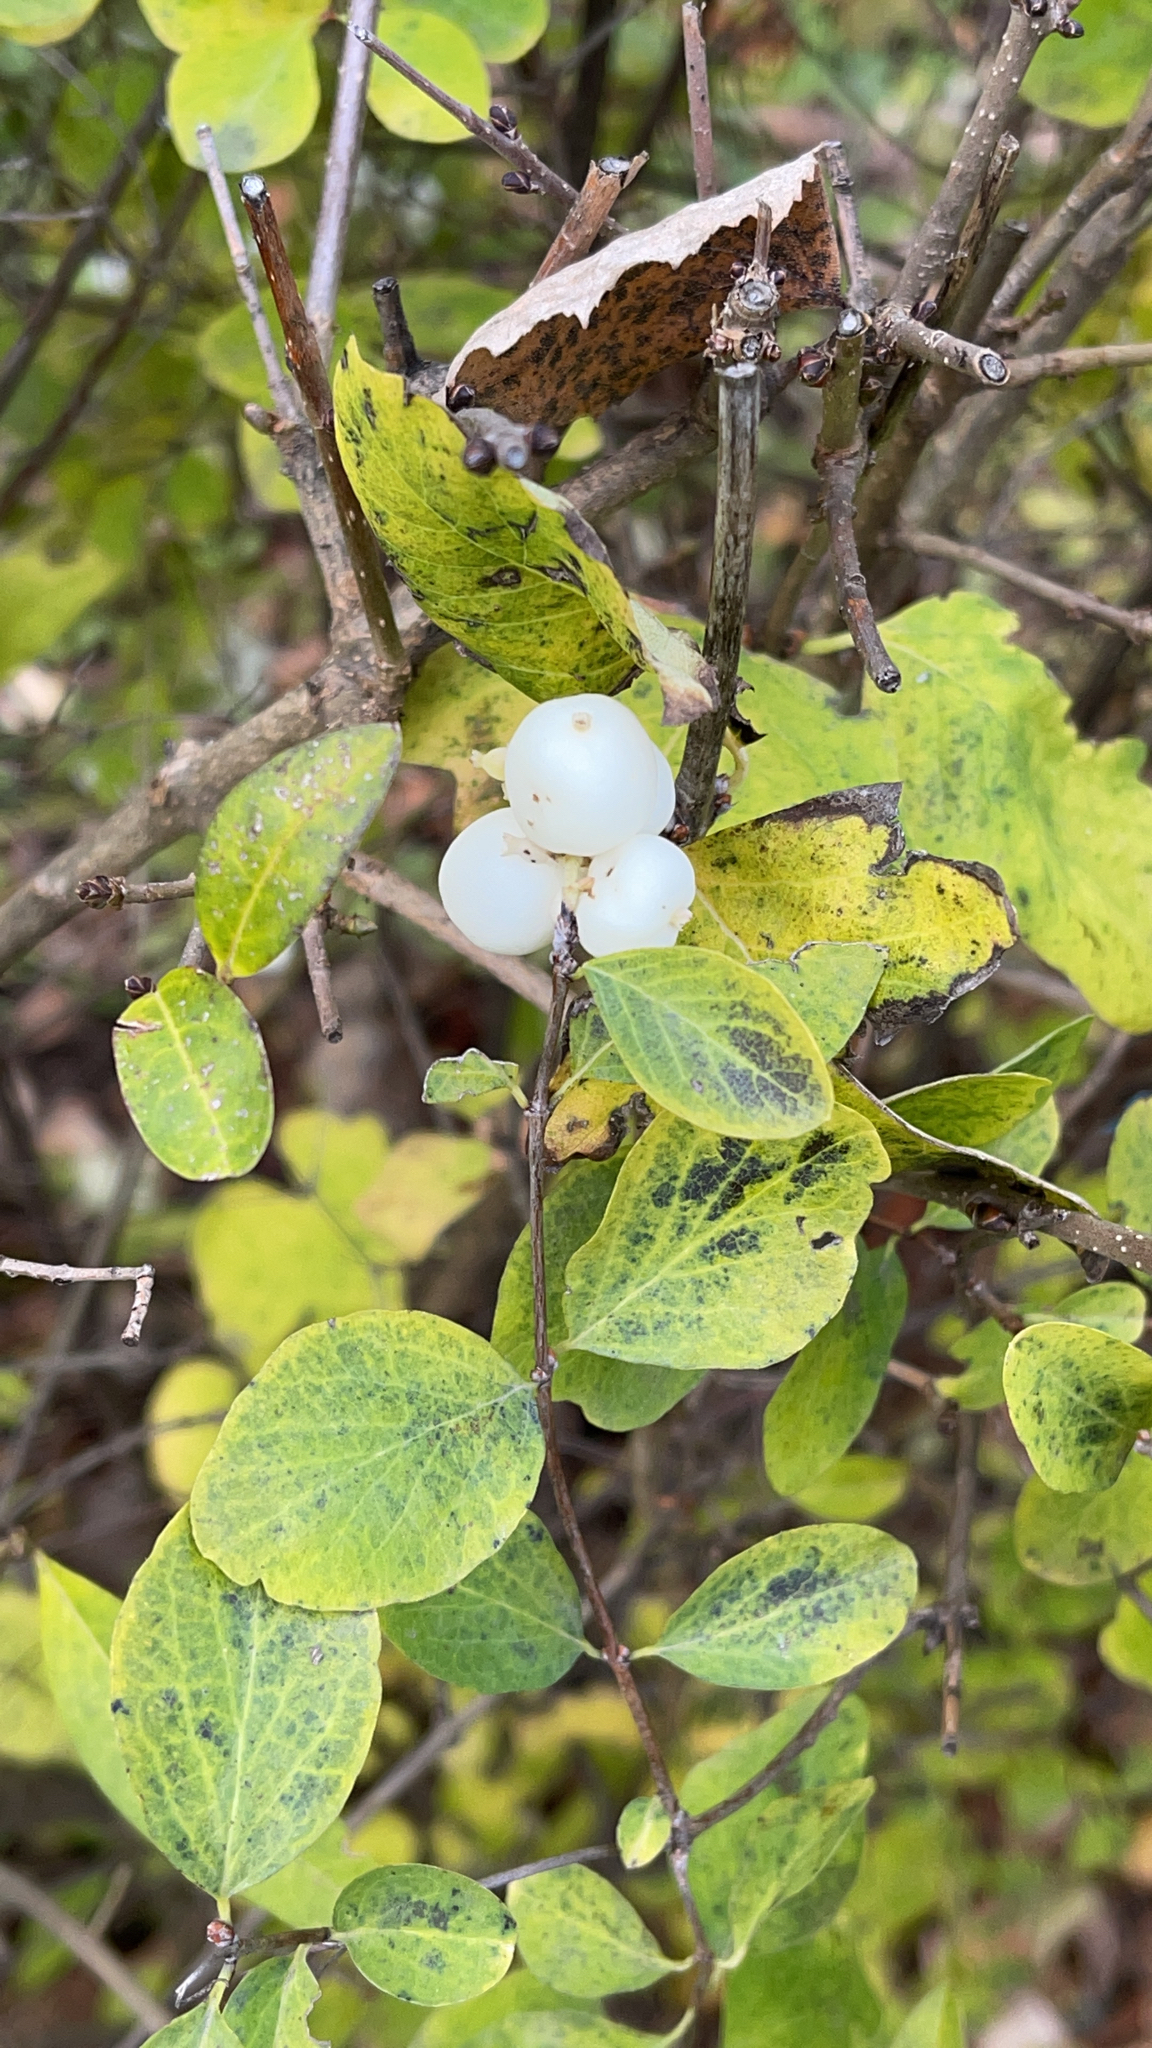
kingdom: Plantae
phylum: Tracheophyta
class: Magnoliopsida
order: Dipsacales
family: Caprifoliaceae
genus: Symphoricarpos
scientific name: Symphoricarpos albus
